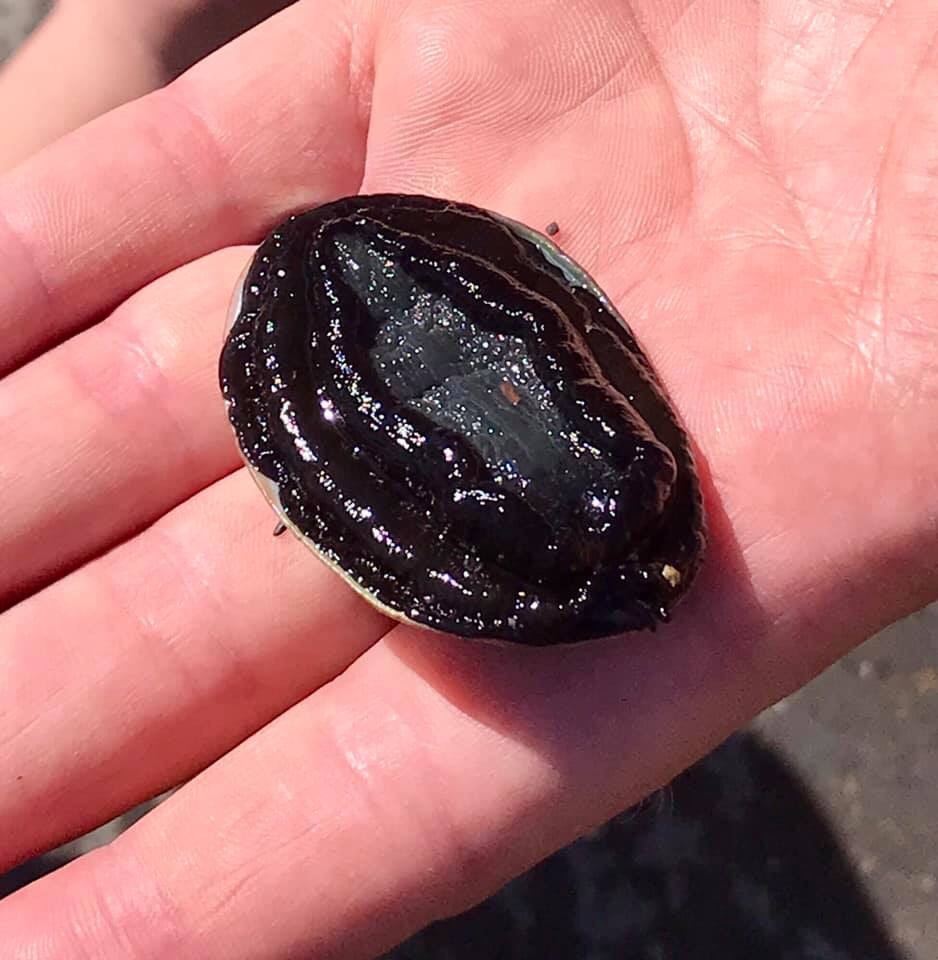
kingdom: Animalia
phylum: Mollusca
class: Gastropoda
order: Lepetellida
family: Haliotidae
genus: Haliotis
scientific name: Haliotis iris
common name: Abalone
